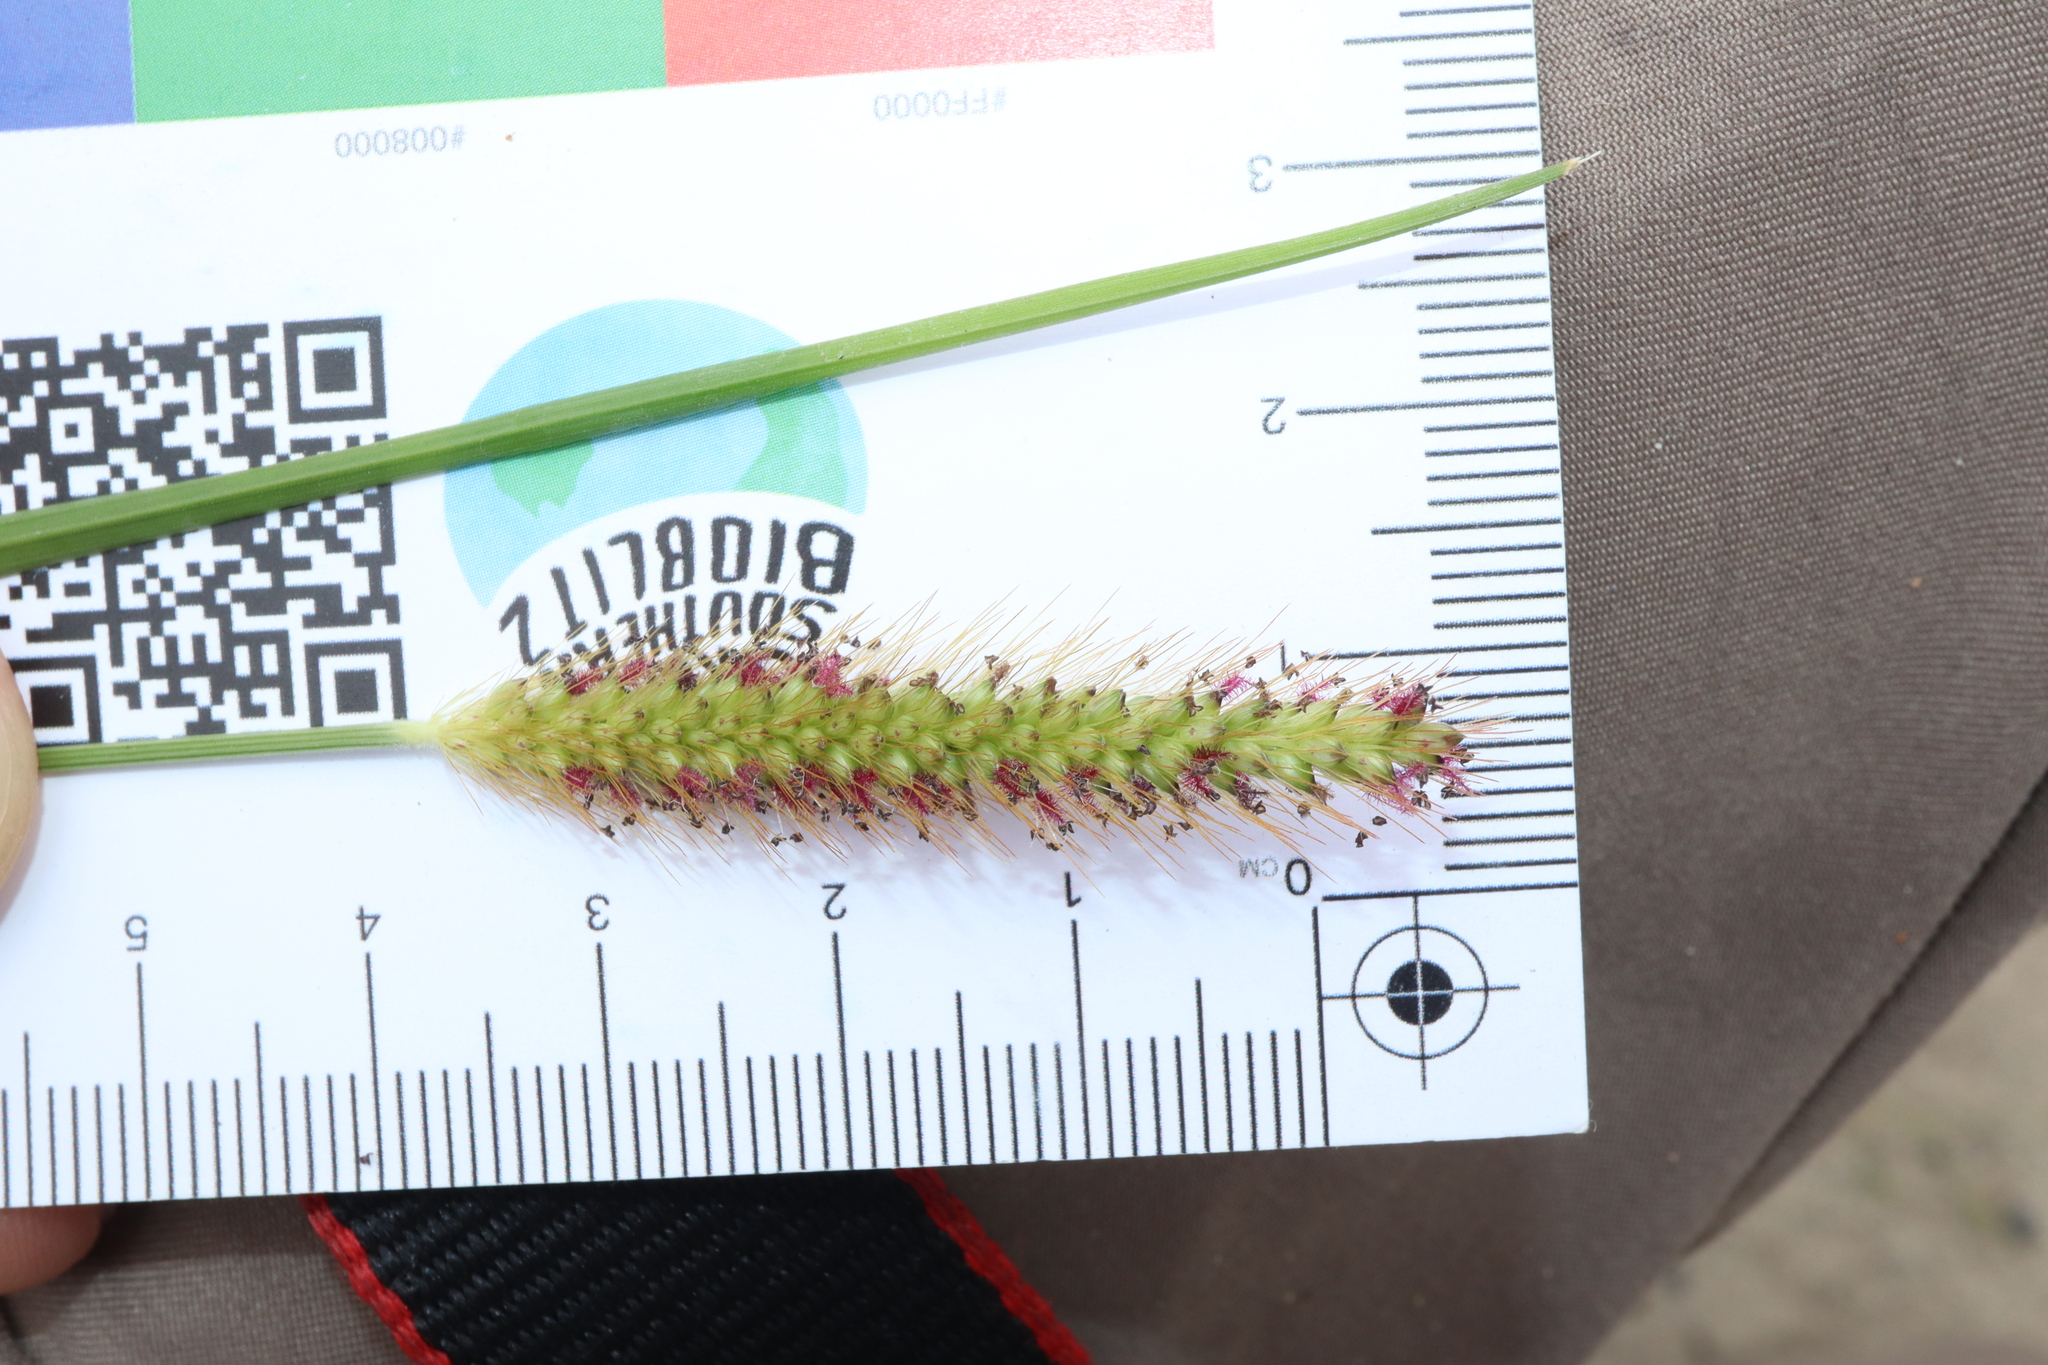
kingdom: Plantae
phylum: Tracheophyta
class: Liliopsida
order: Poales
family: Poaceae
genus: Setaria
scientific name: Setaria parviflora
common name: Knotroot bristle-grass
